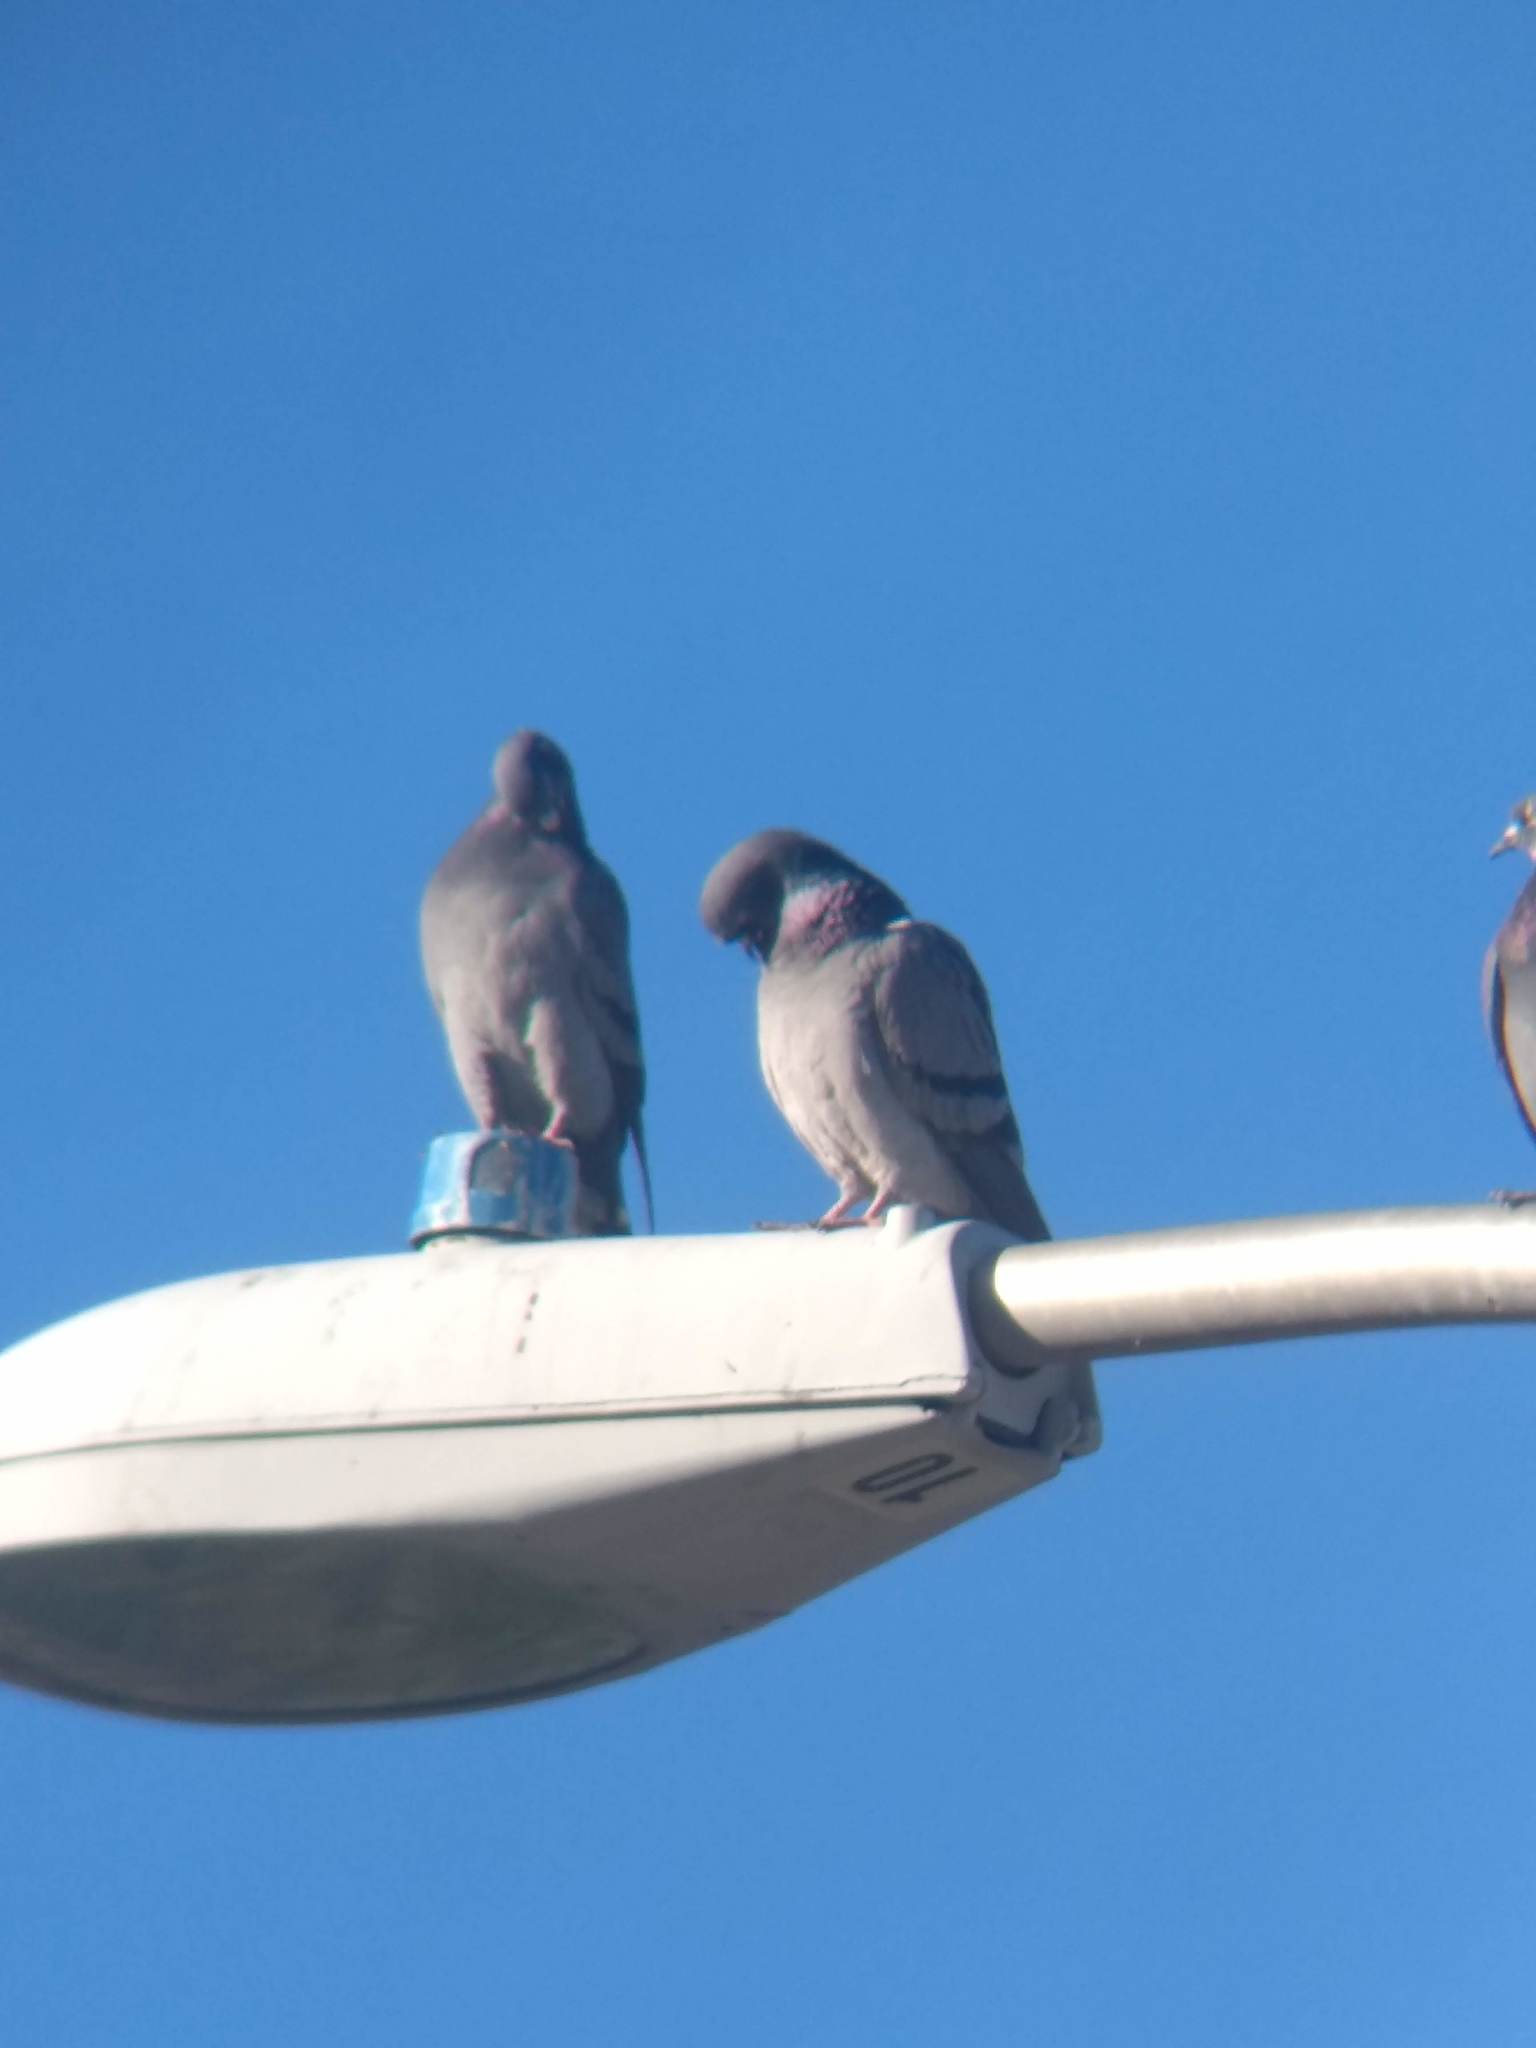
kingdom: Animalia
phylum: Chordata
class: Aves
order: Columbiformes
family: Columbidae
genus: Columba
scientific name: Columba livia
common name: Rock pigeon
